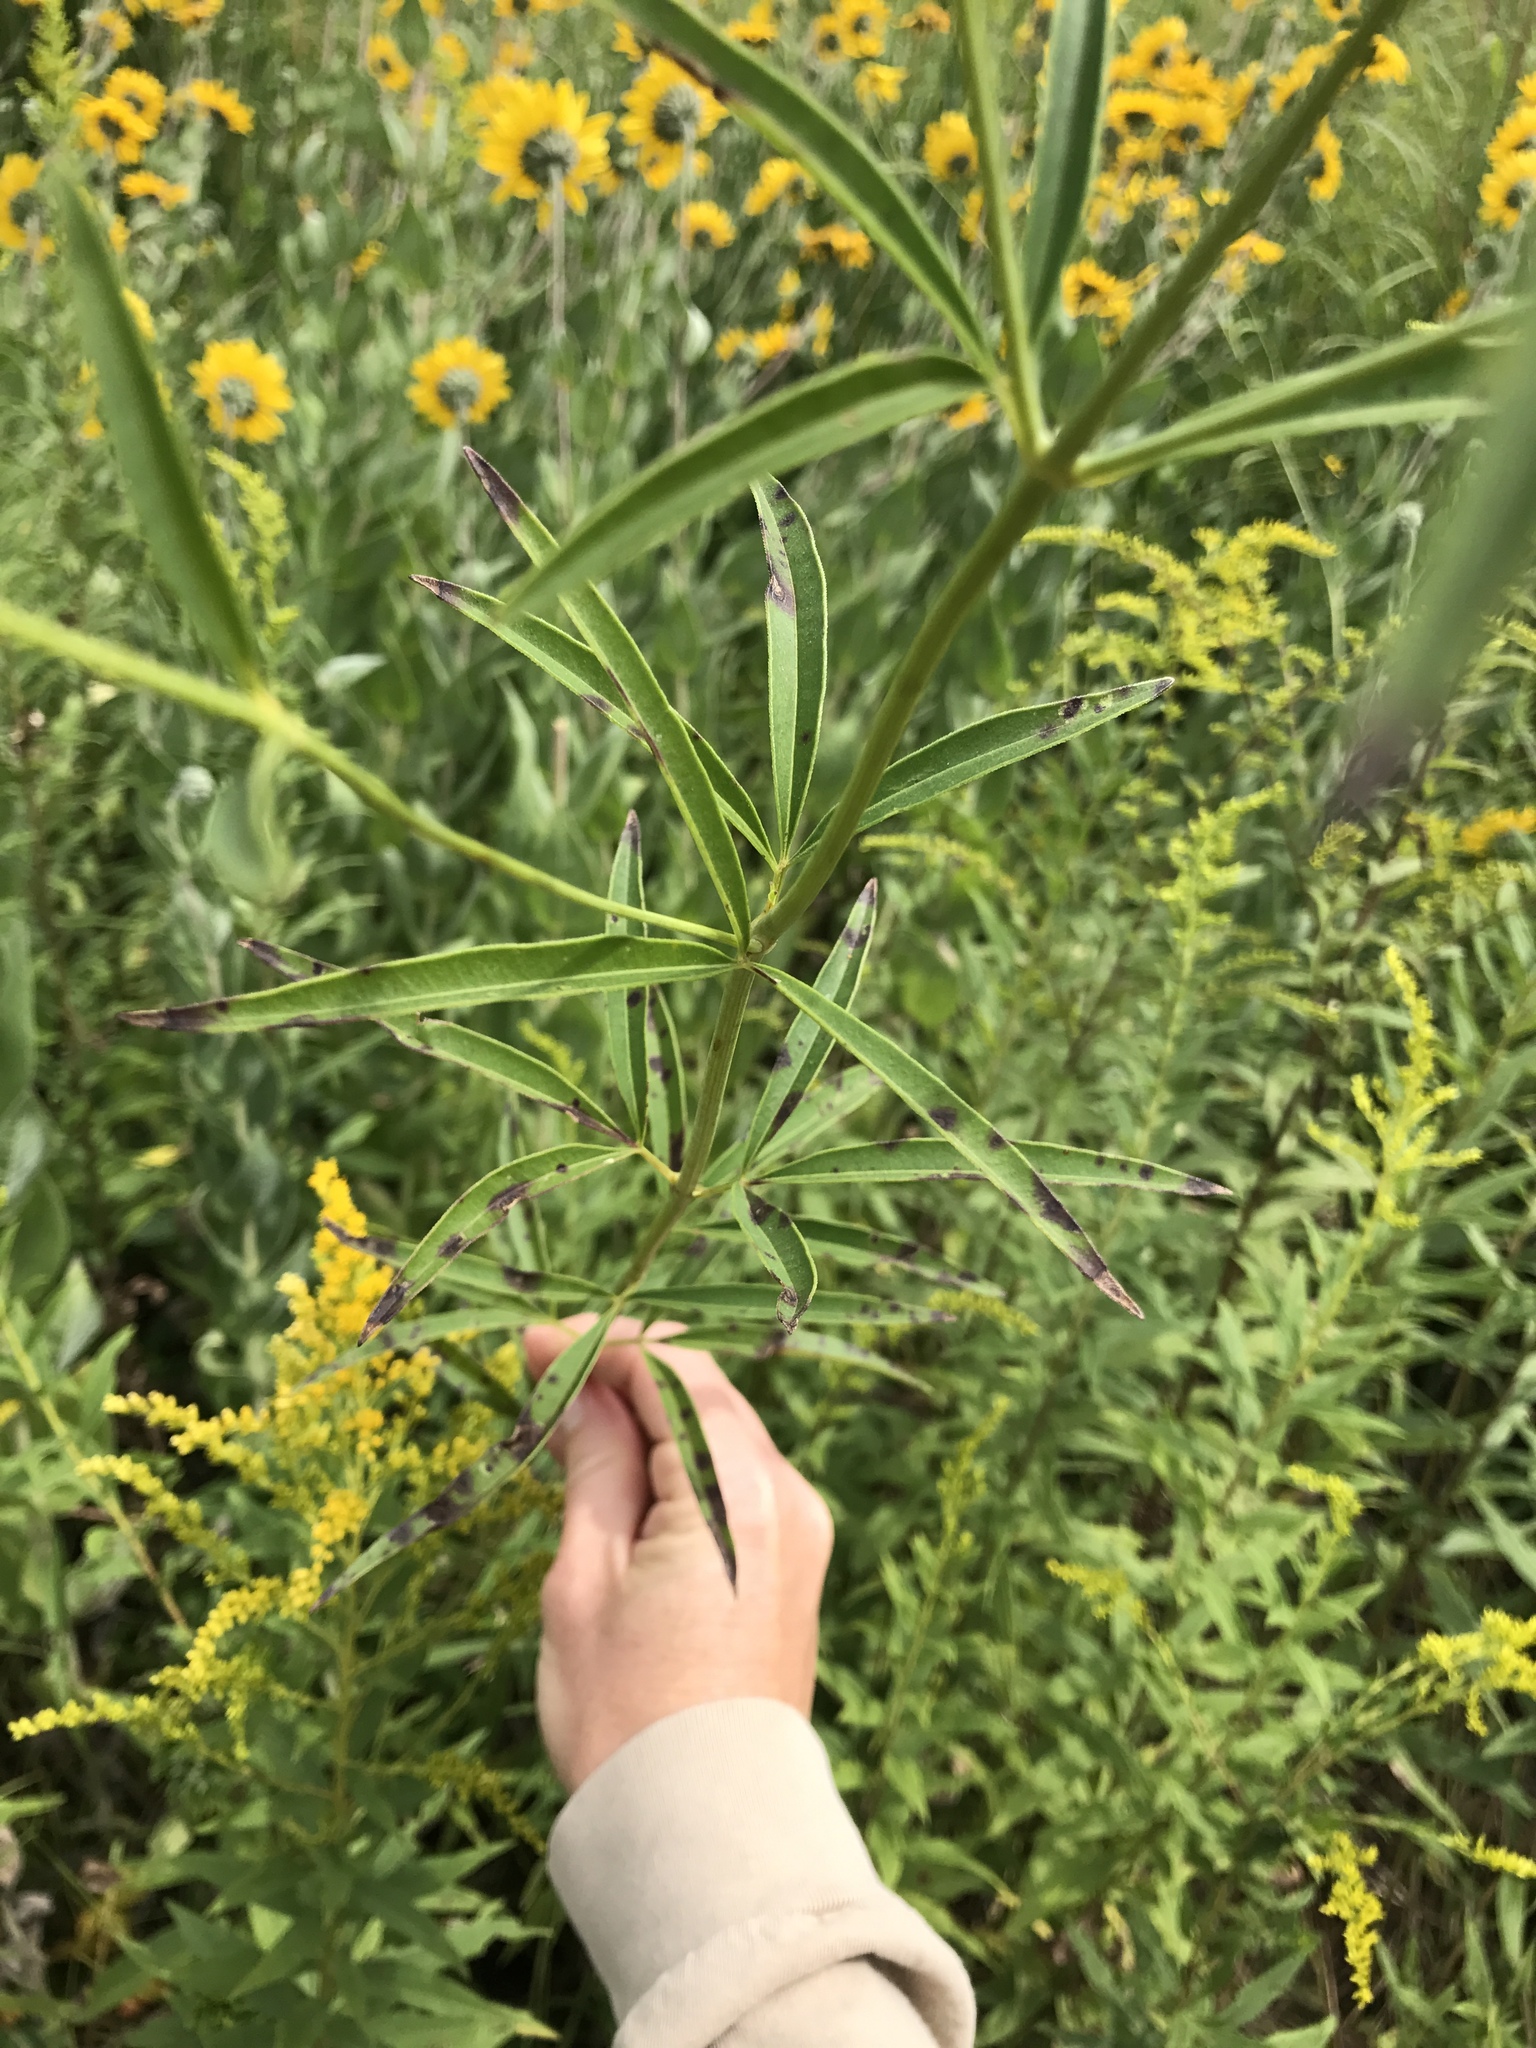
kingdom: Plantae
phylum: Tracheophyta
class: Magnoliopsida
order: Asterales
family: Asteraceae
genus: Coreopsis
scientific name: Coreopsis tripteris
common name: Tall coreopsis
